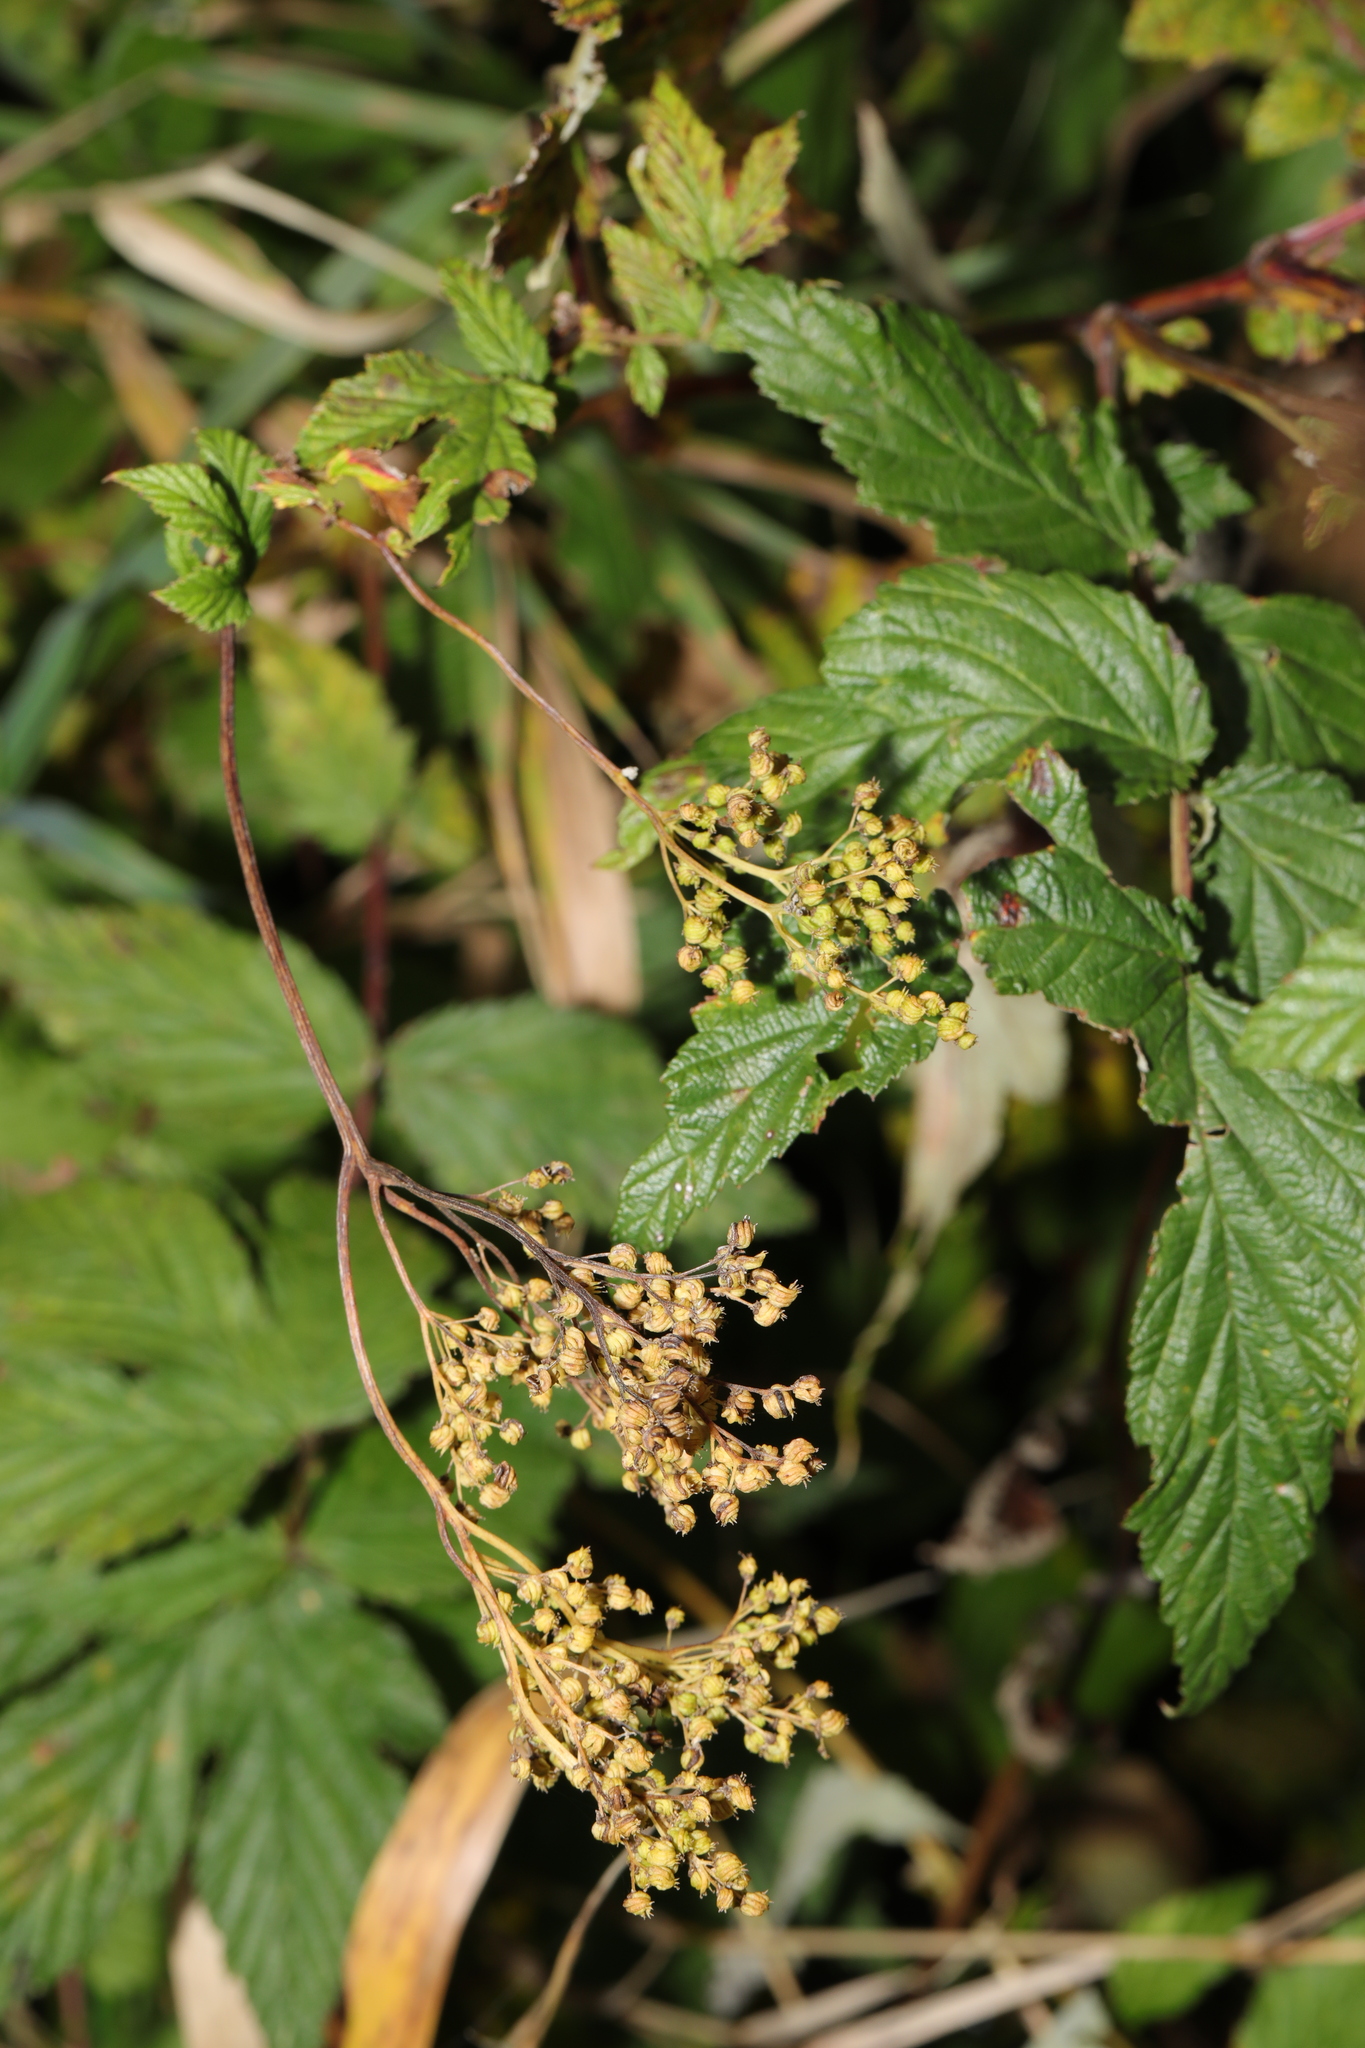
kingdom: Plantae
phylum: Tracheophyta
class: Magnoliopsida
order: Rosales
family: Rosaceae
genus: Filipendula
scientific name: Filipendula ulmaria
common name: Meadowsweet
